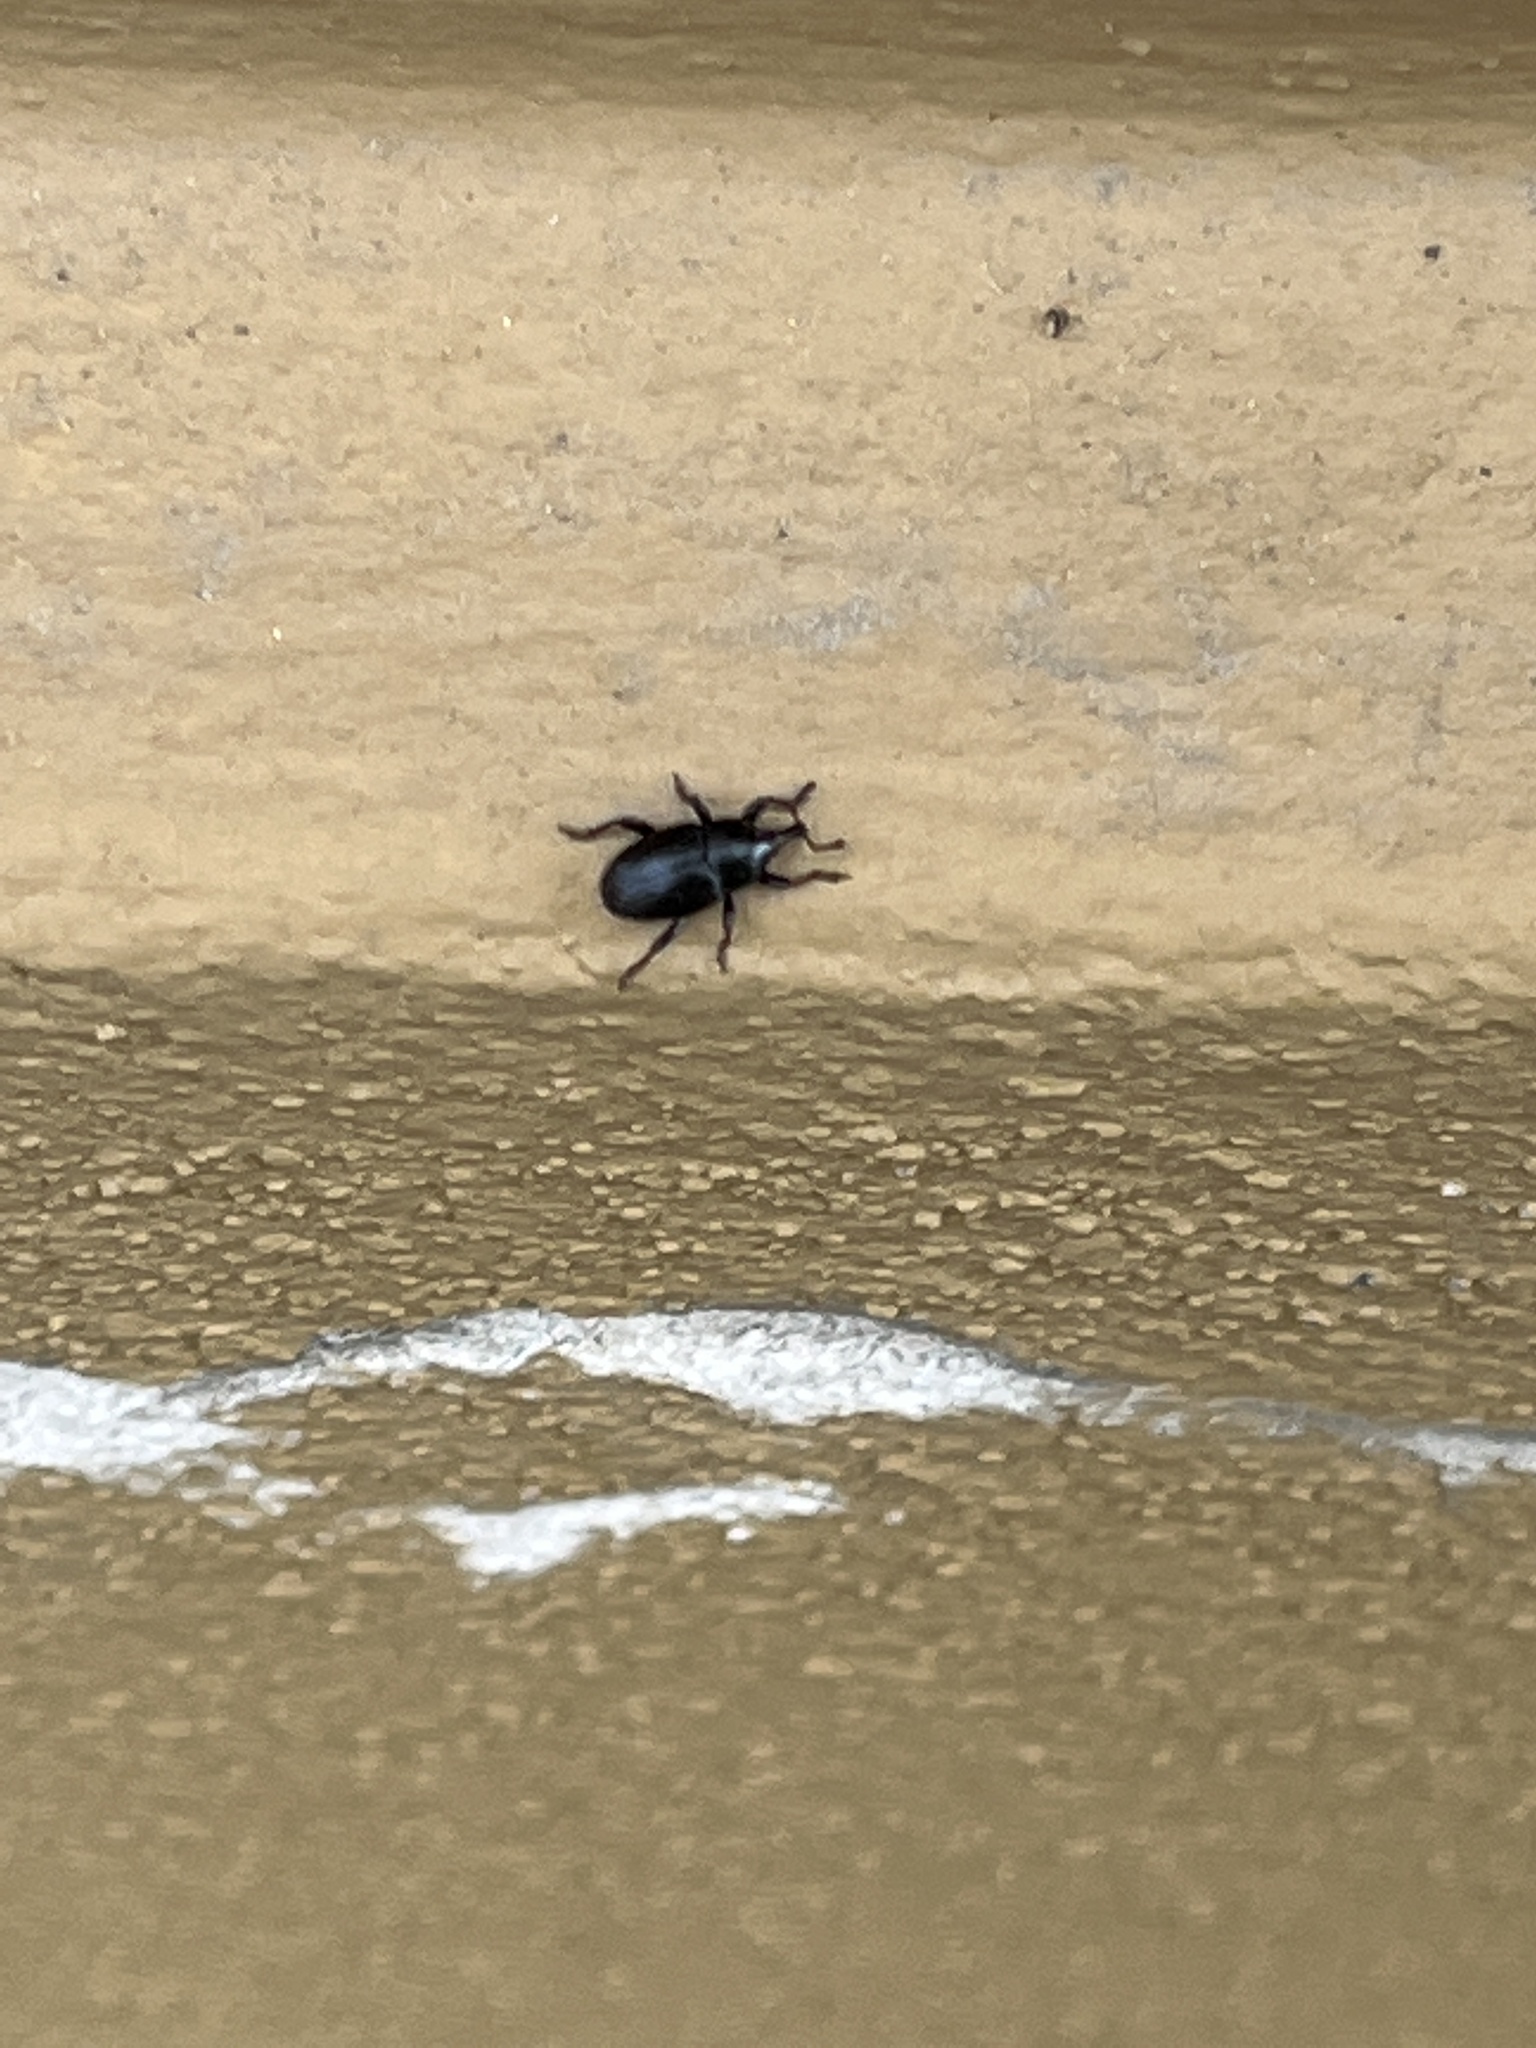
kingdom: Animalia
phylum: Arthropoda
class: Insecta
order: Coleoptera
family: Curculionidae
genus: Malvaevora
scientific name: Malvaevora timida
